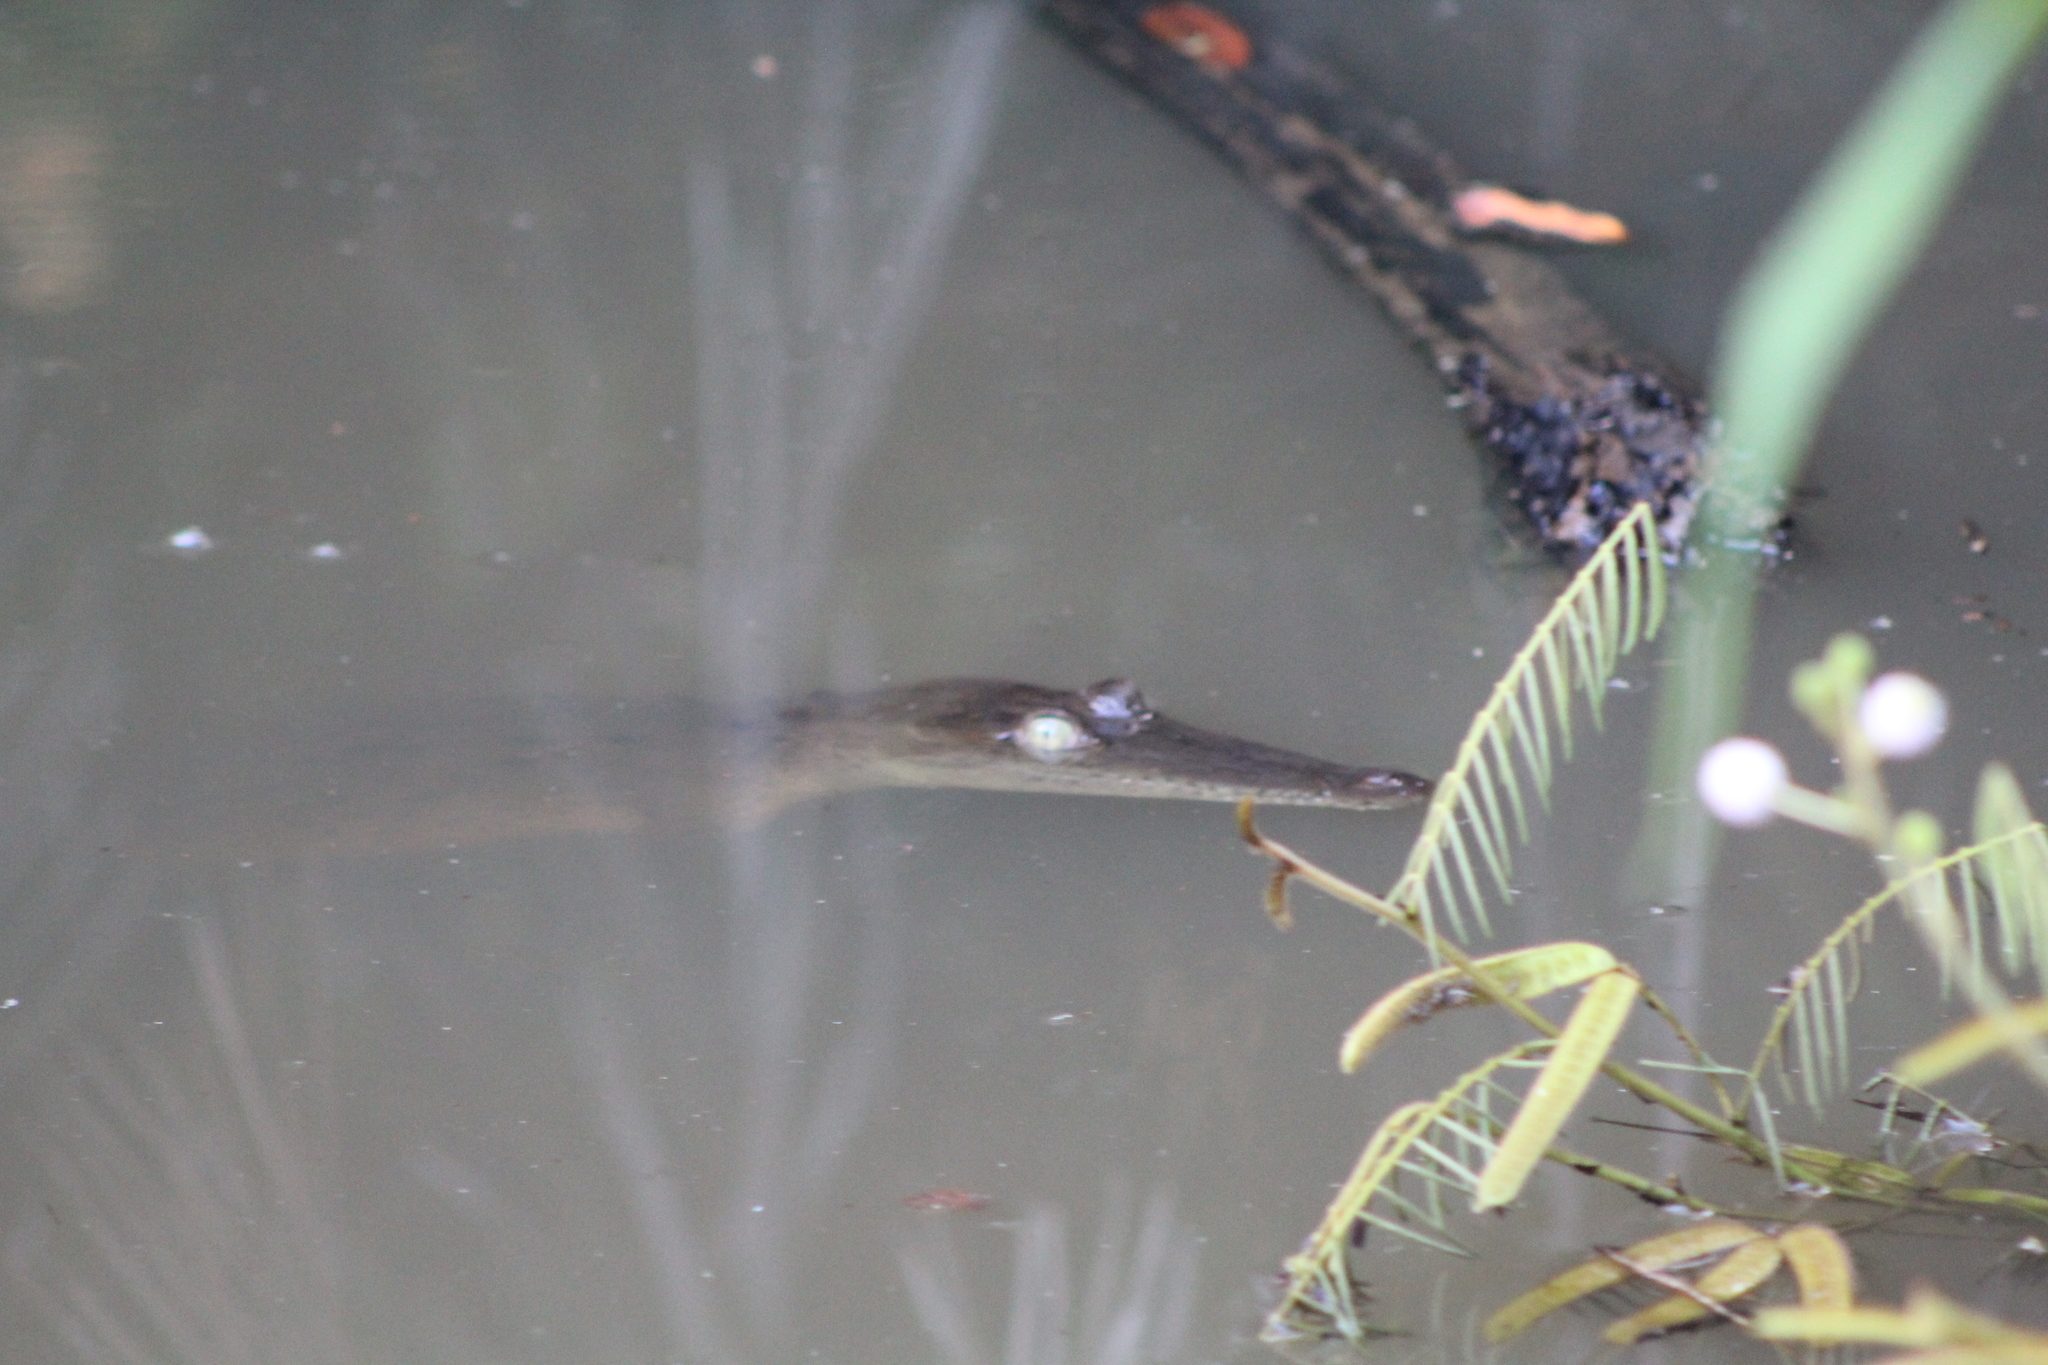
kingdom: Animalia
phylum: Chordata
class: Crocodylia
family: Crocodylidae
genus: Crocodylus
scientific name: Crocodylus acutus
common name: American crocodile
